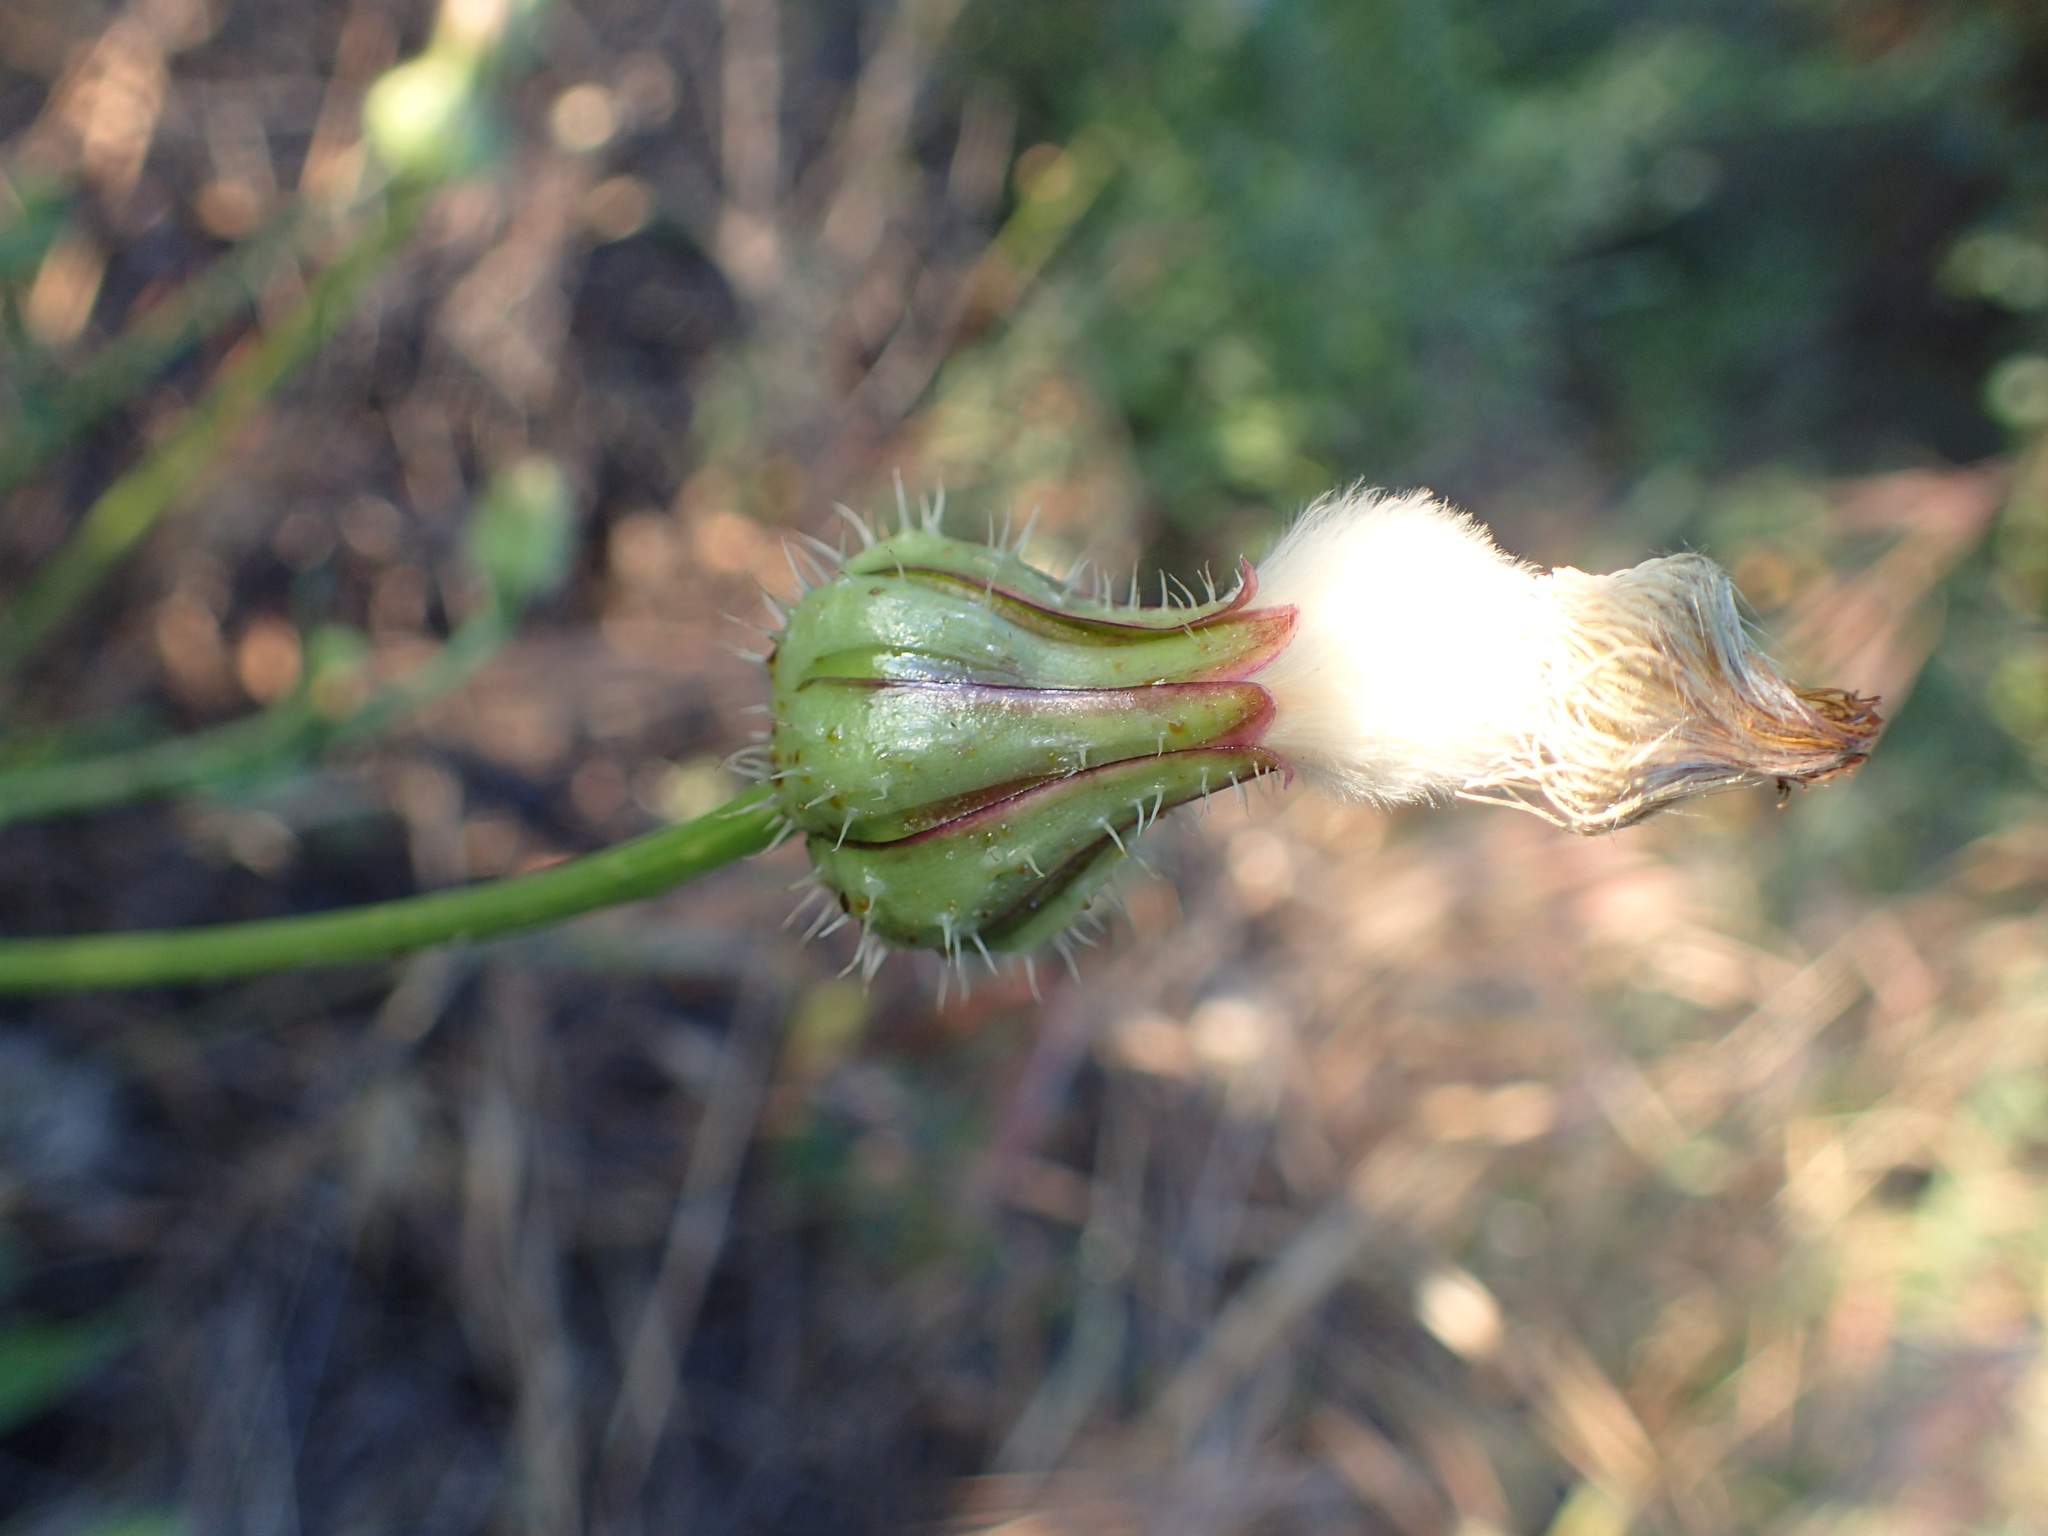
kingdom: Plantae
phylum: Tracheophyta
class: Magnoliopsida
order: Asterales
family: Asteraceae
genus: Urospermum
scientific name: Urospermum picroides
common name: False hawkbit
